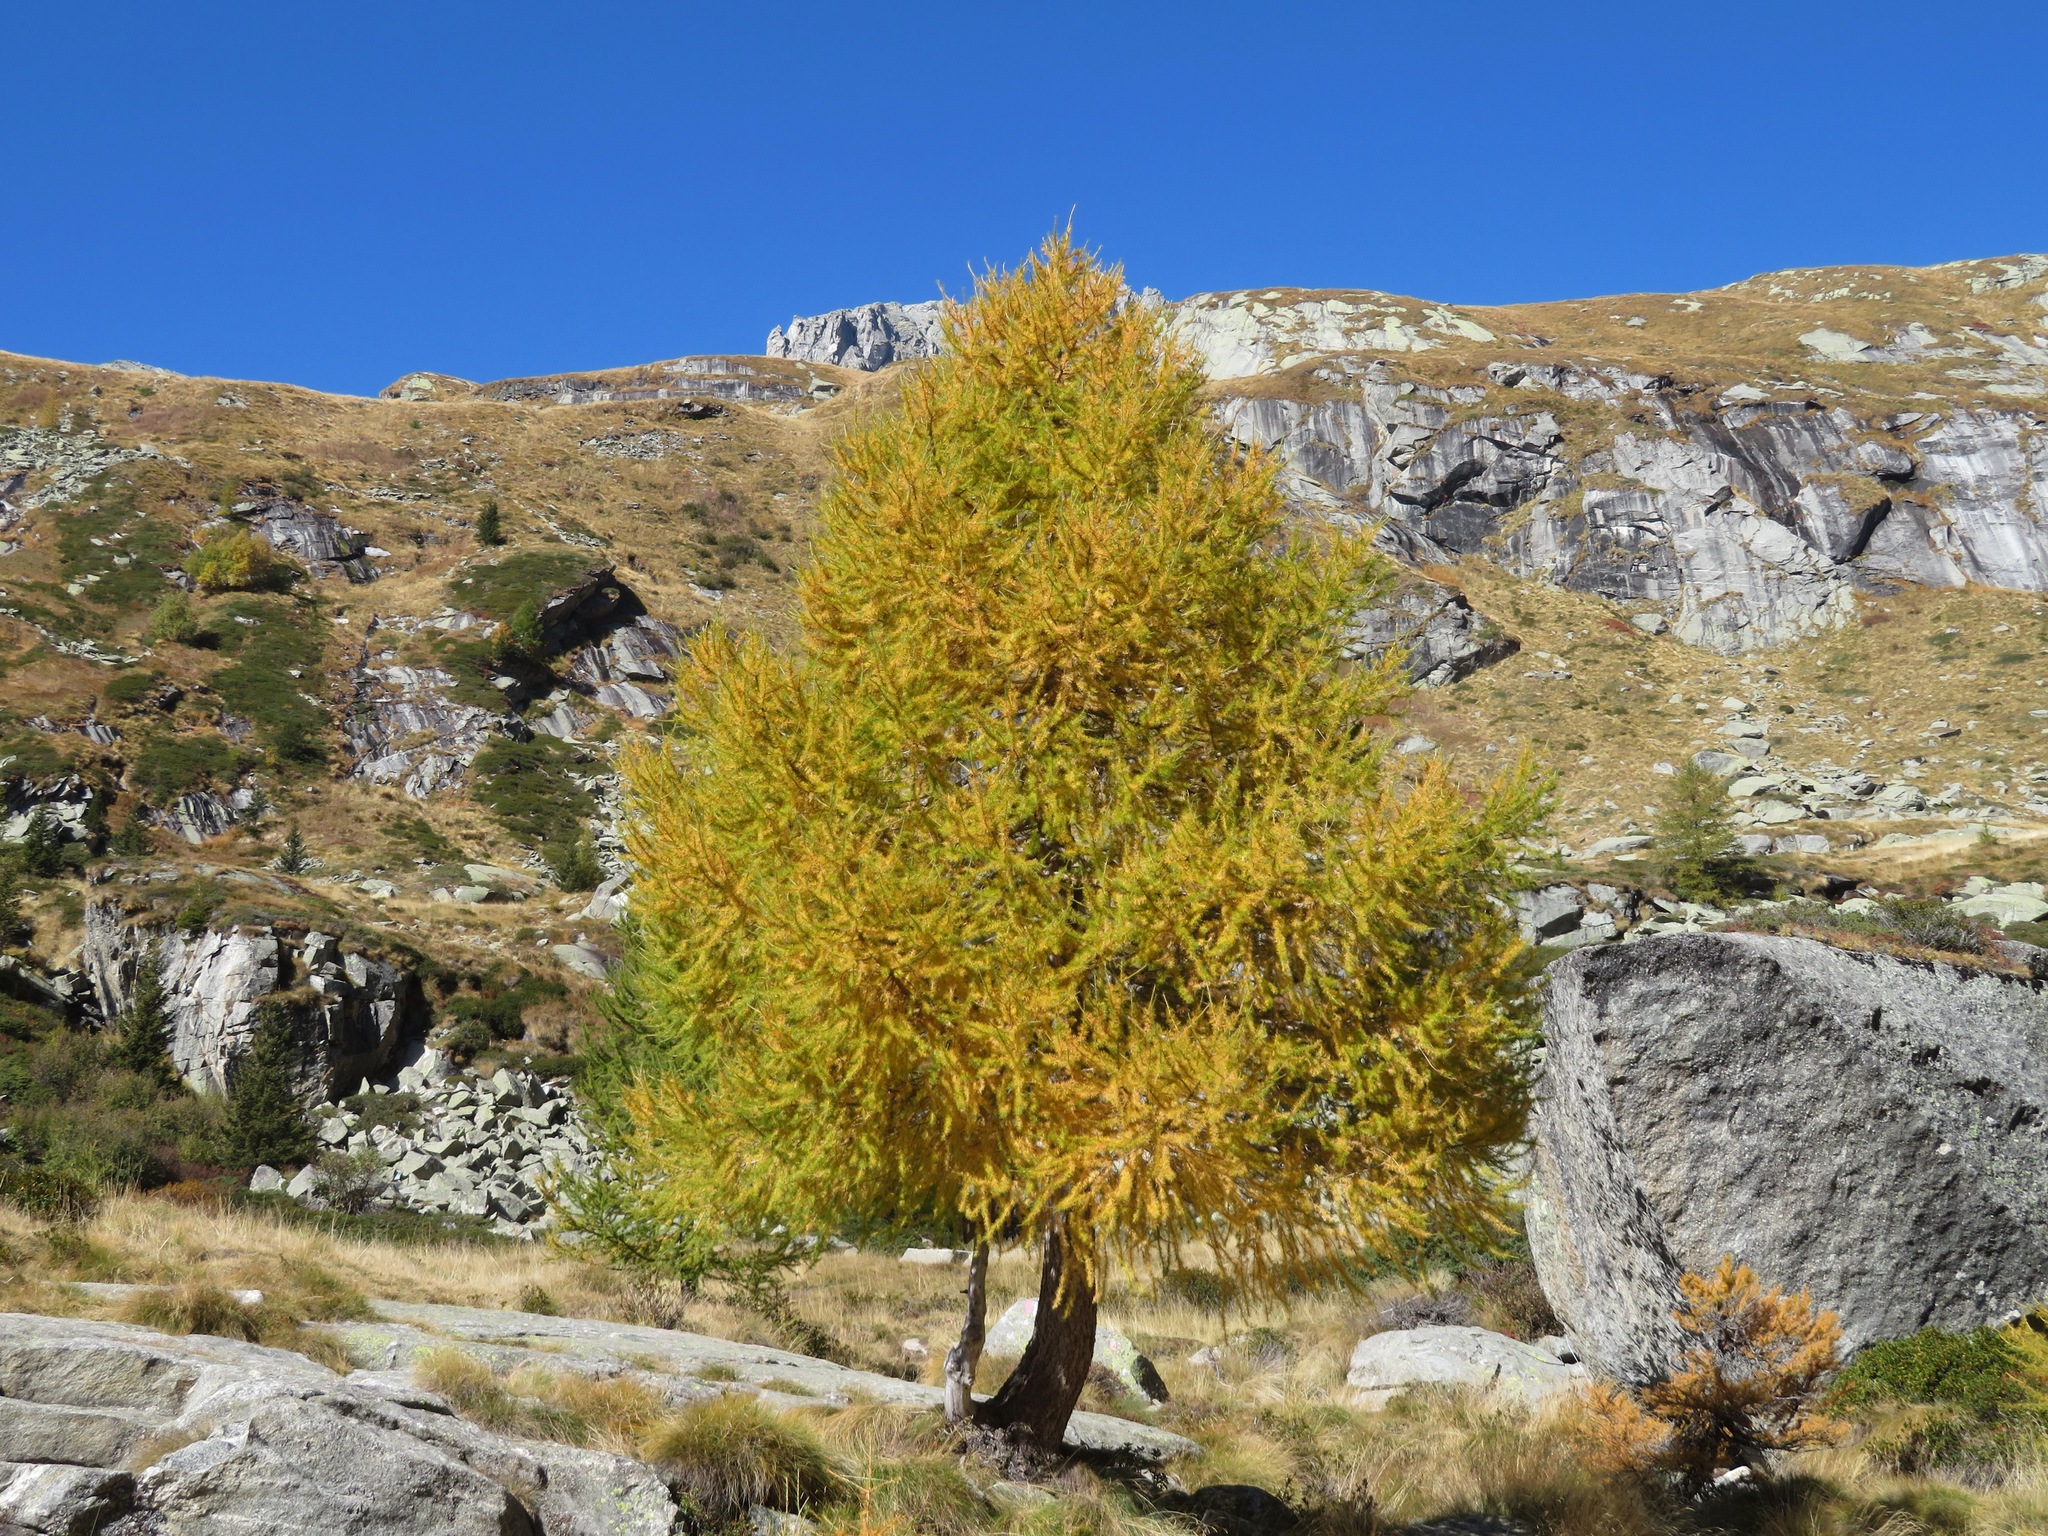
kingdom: Plantae
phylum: Tracheophyta
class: Pinopsida
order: Pinales
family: Pinaceae
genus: Larix
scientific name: Larix decidua
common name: European larch
